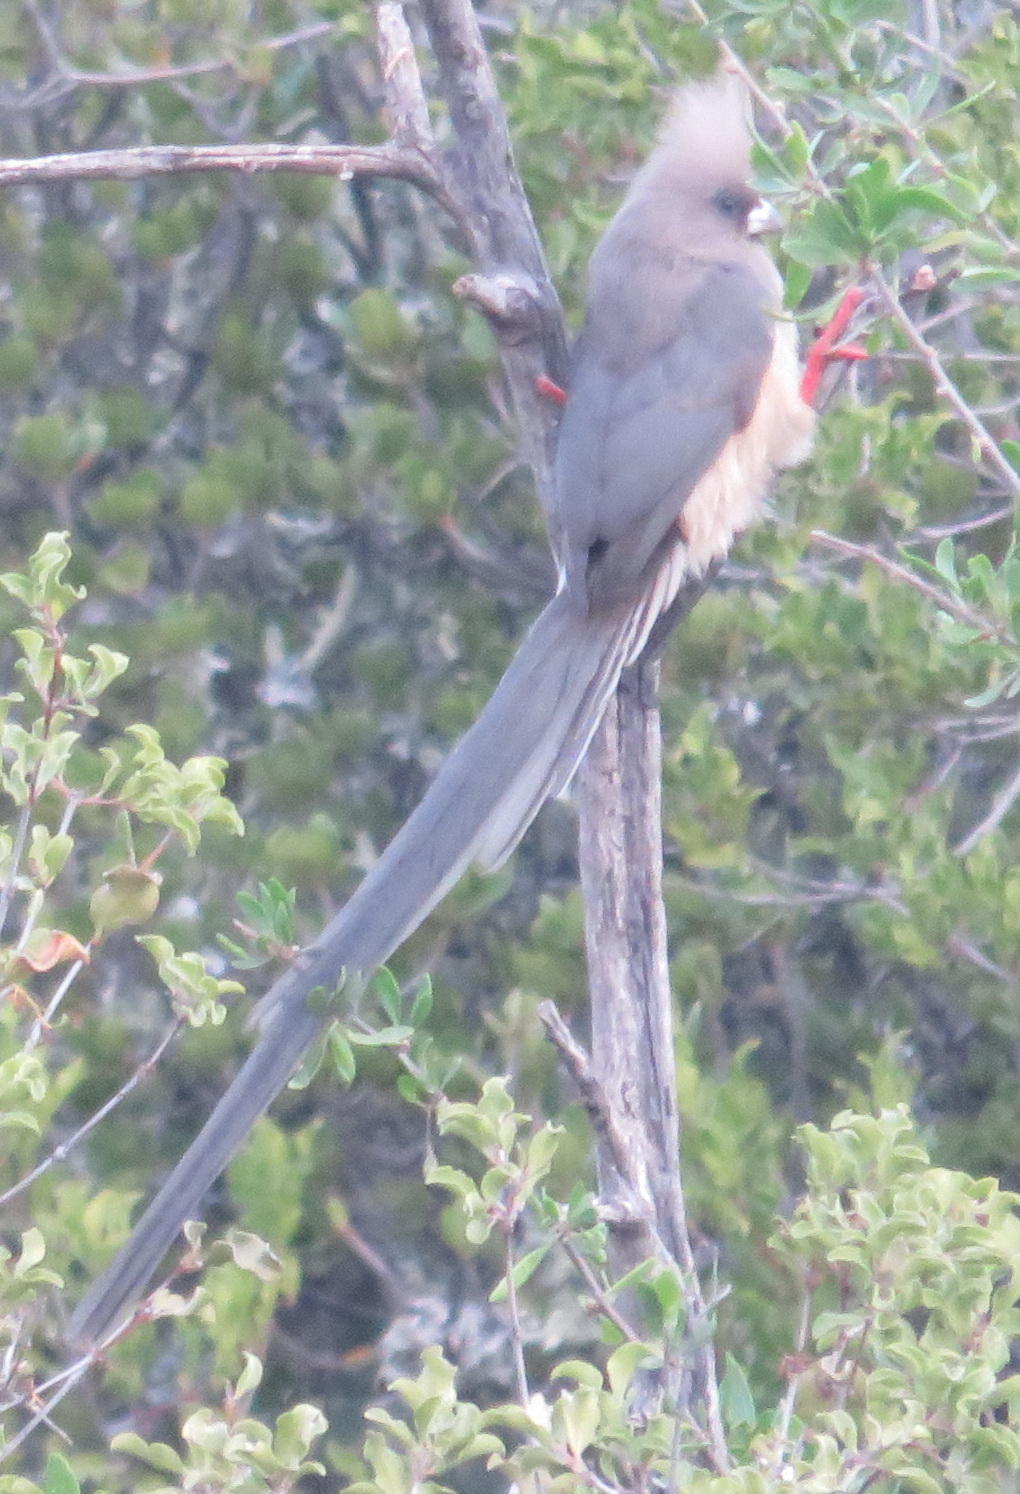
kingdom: Animalia
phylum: Chordata
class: Aves
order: Coliiformes
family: Coliidae
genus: Colius
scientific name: Colius colius
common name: White-backed mousebird
